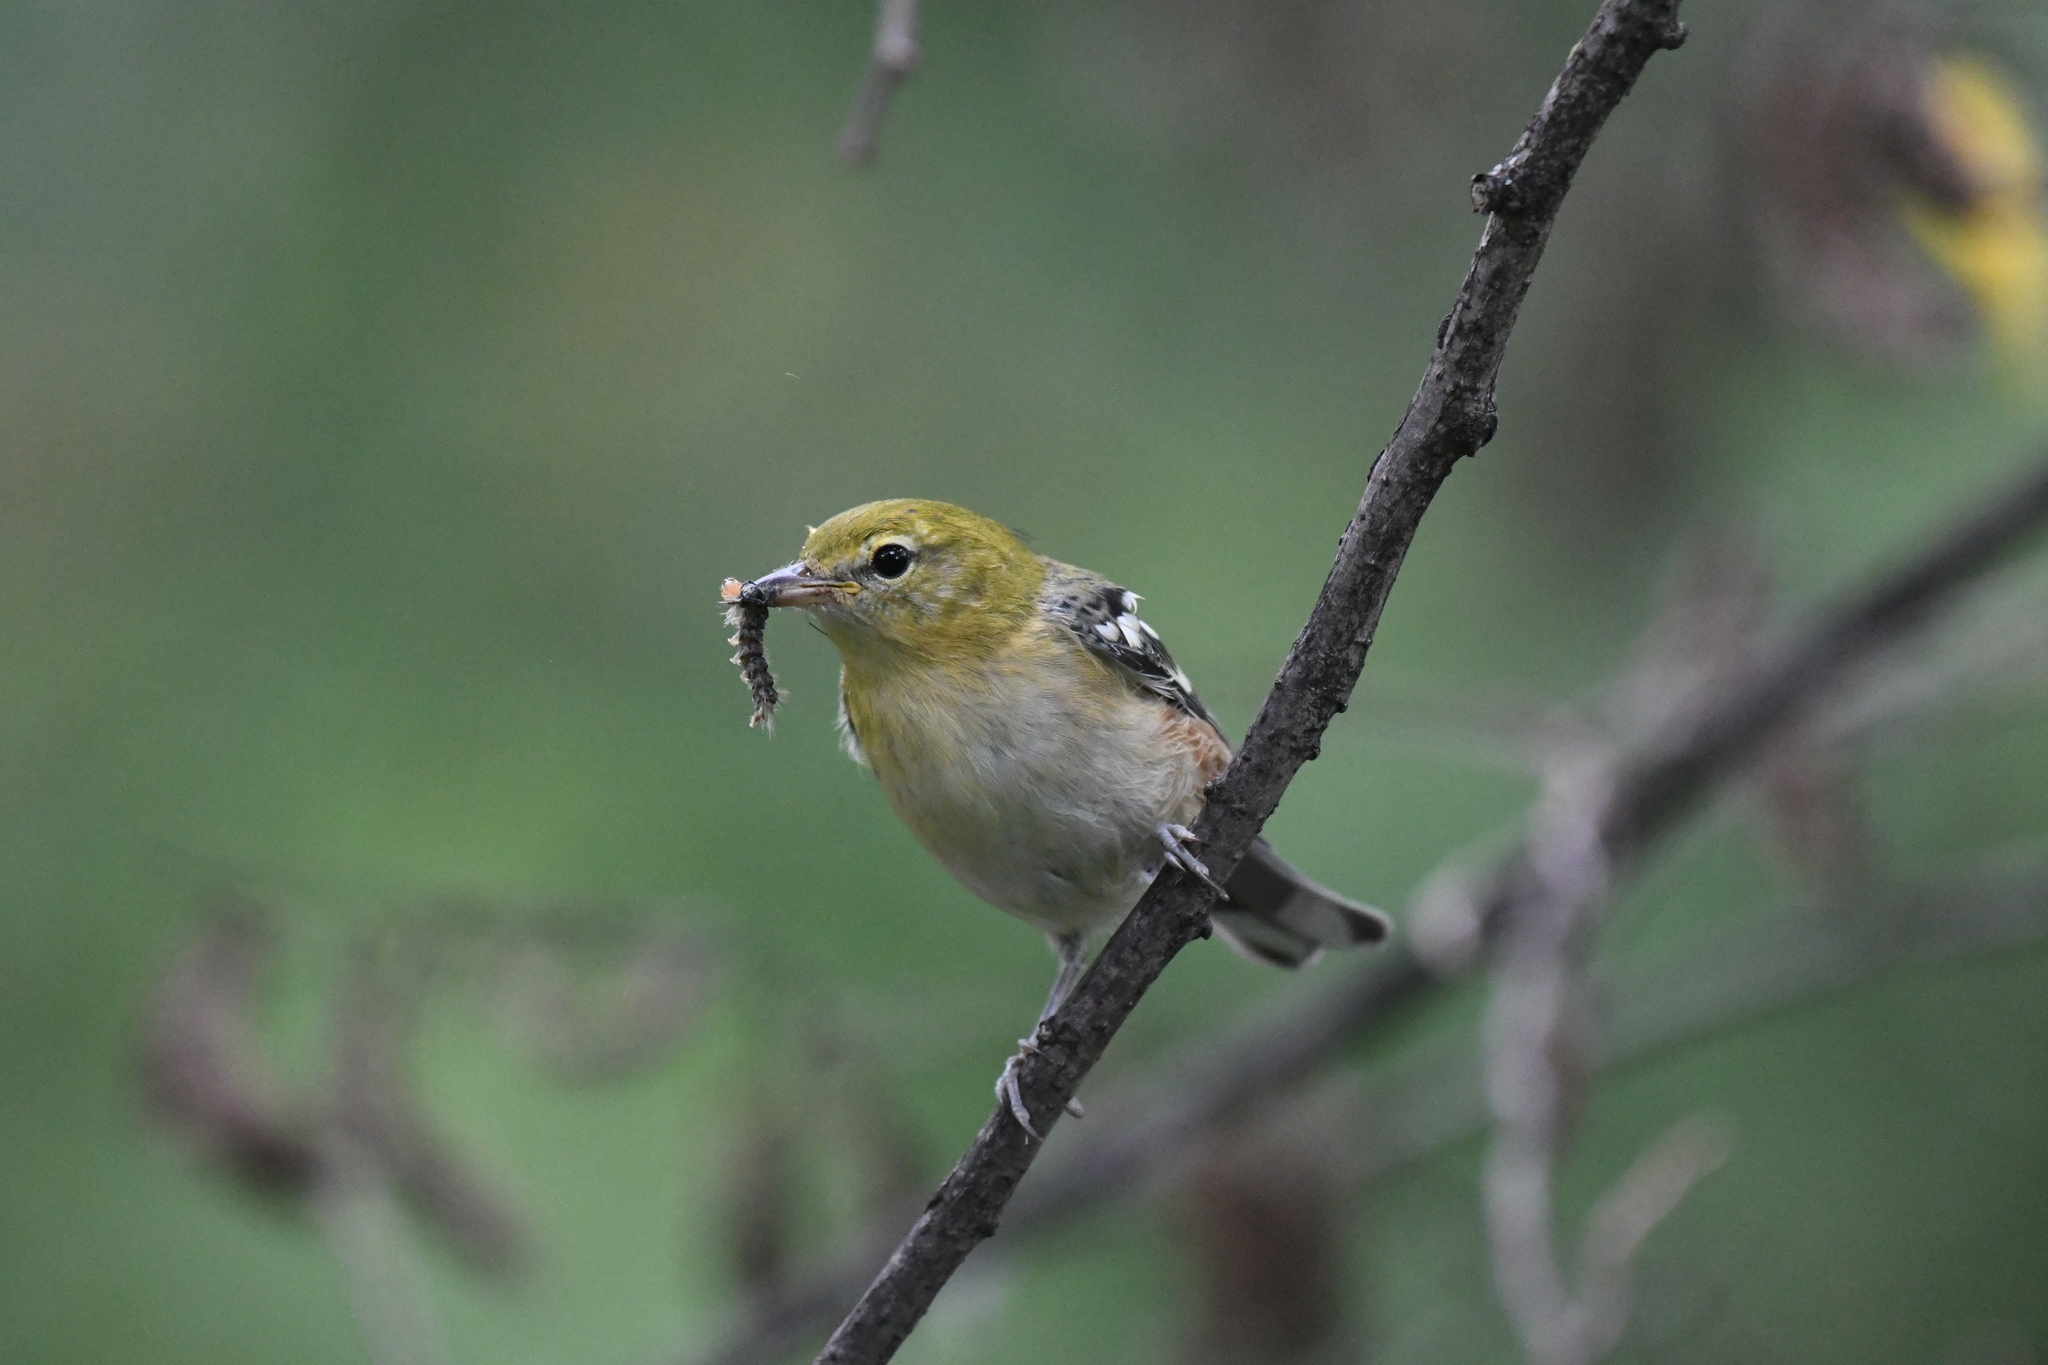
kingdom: Animalia
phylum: Chordata
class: Aves
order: Passeriformes
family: Parulidae
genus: Setophaga
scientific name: Setophaga castanea
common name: Bay-breasted warbler
